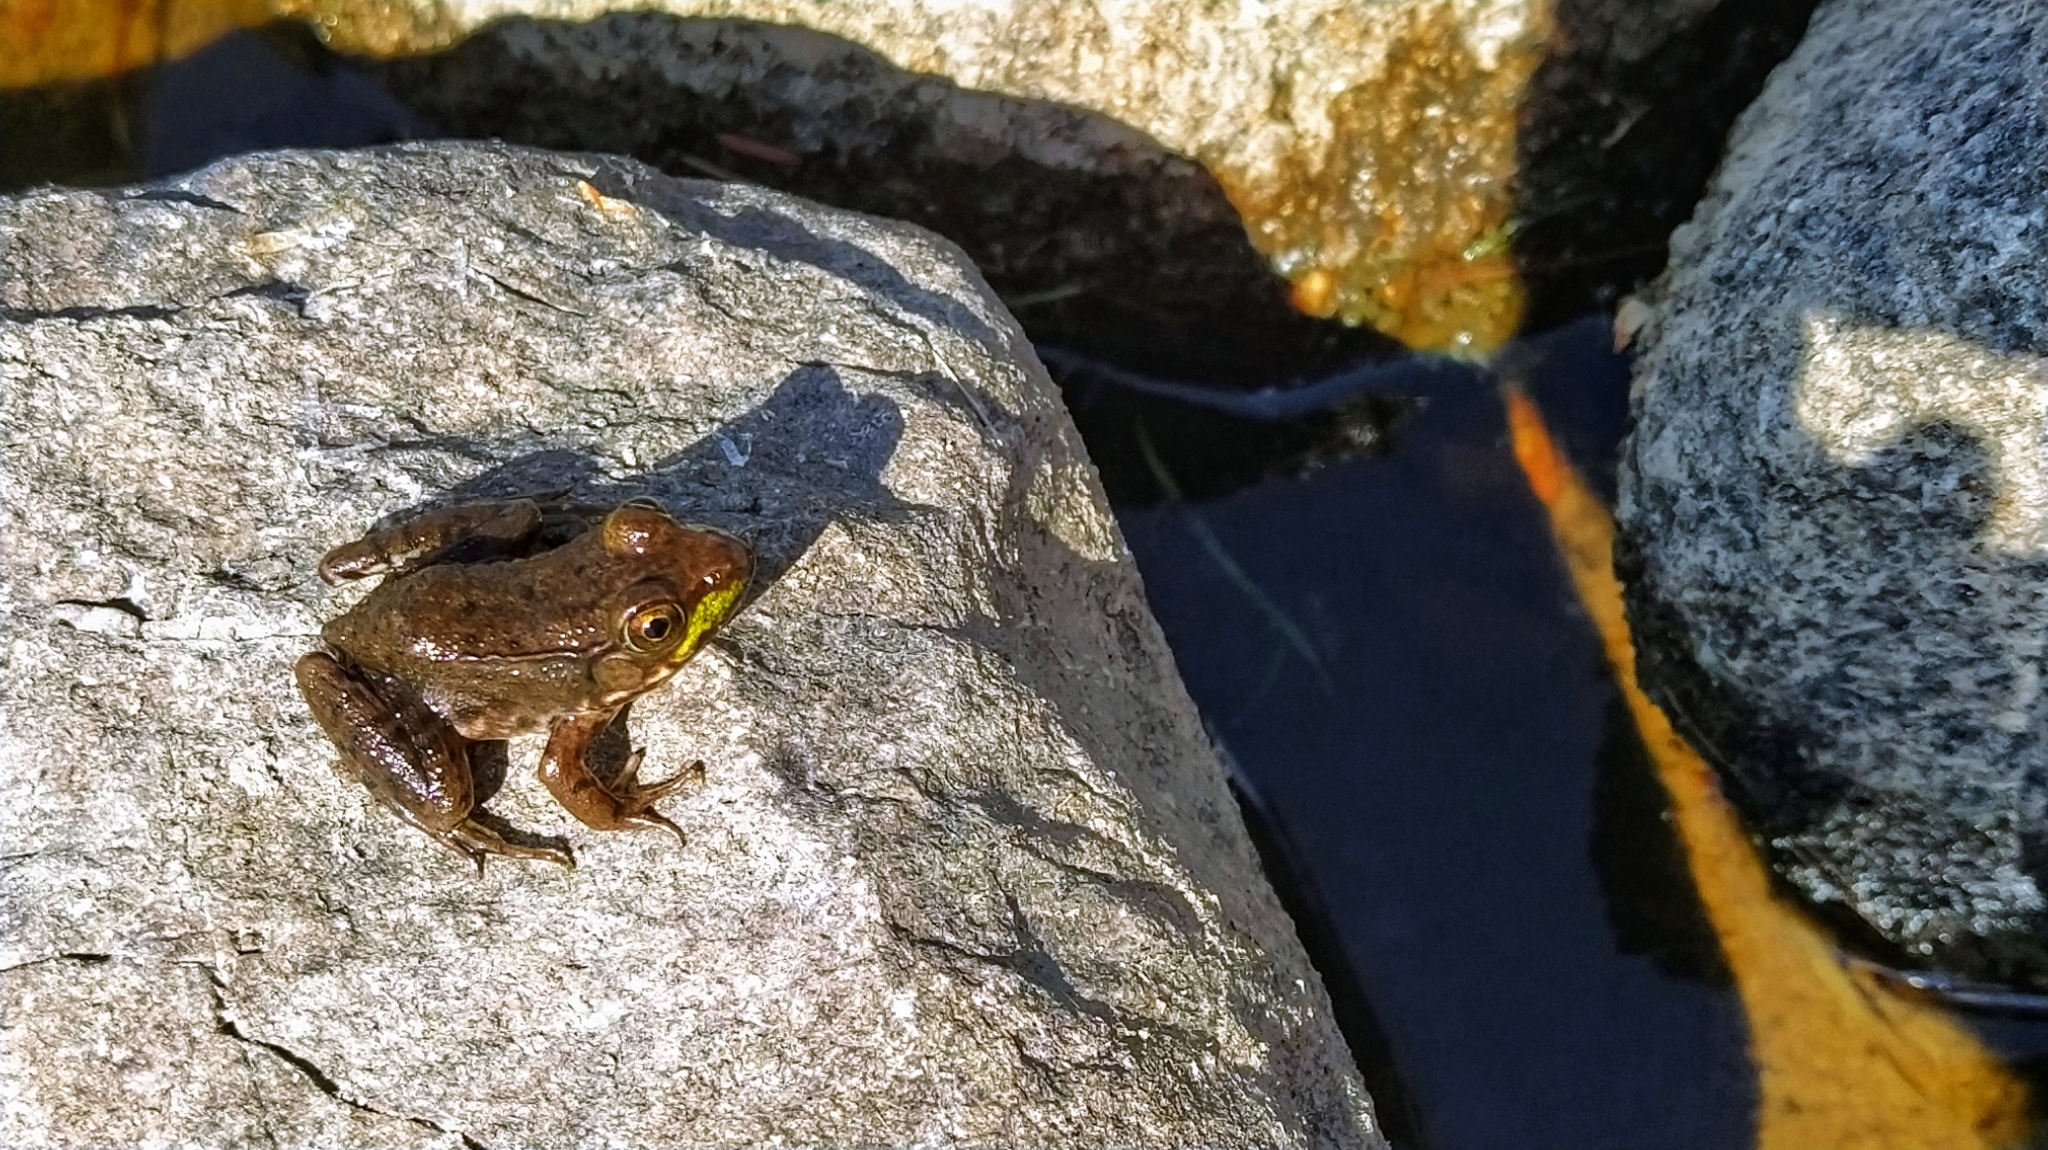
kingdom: Animalia
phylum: Chordata
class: Amphibia
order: Anura
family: Ranidae
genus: Lithobates
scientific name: Lithobates clamitans
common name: Green frog
